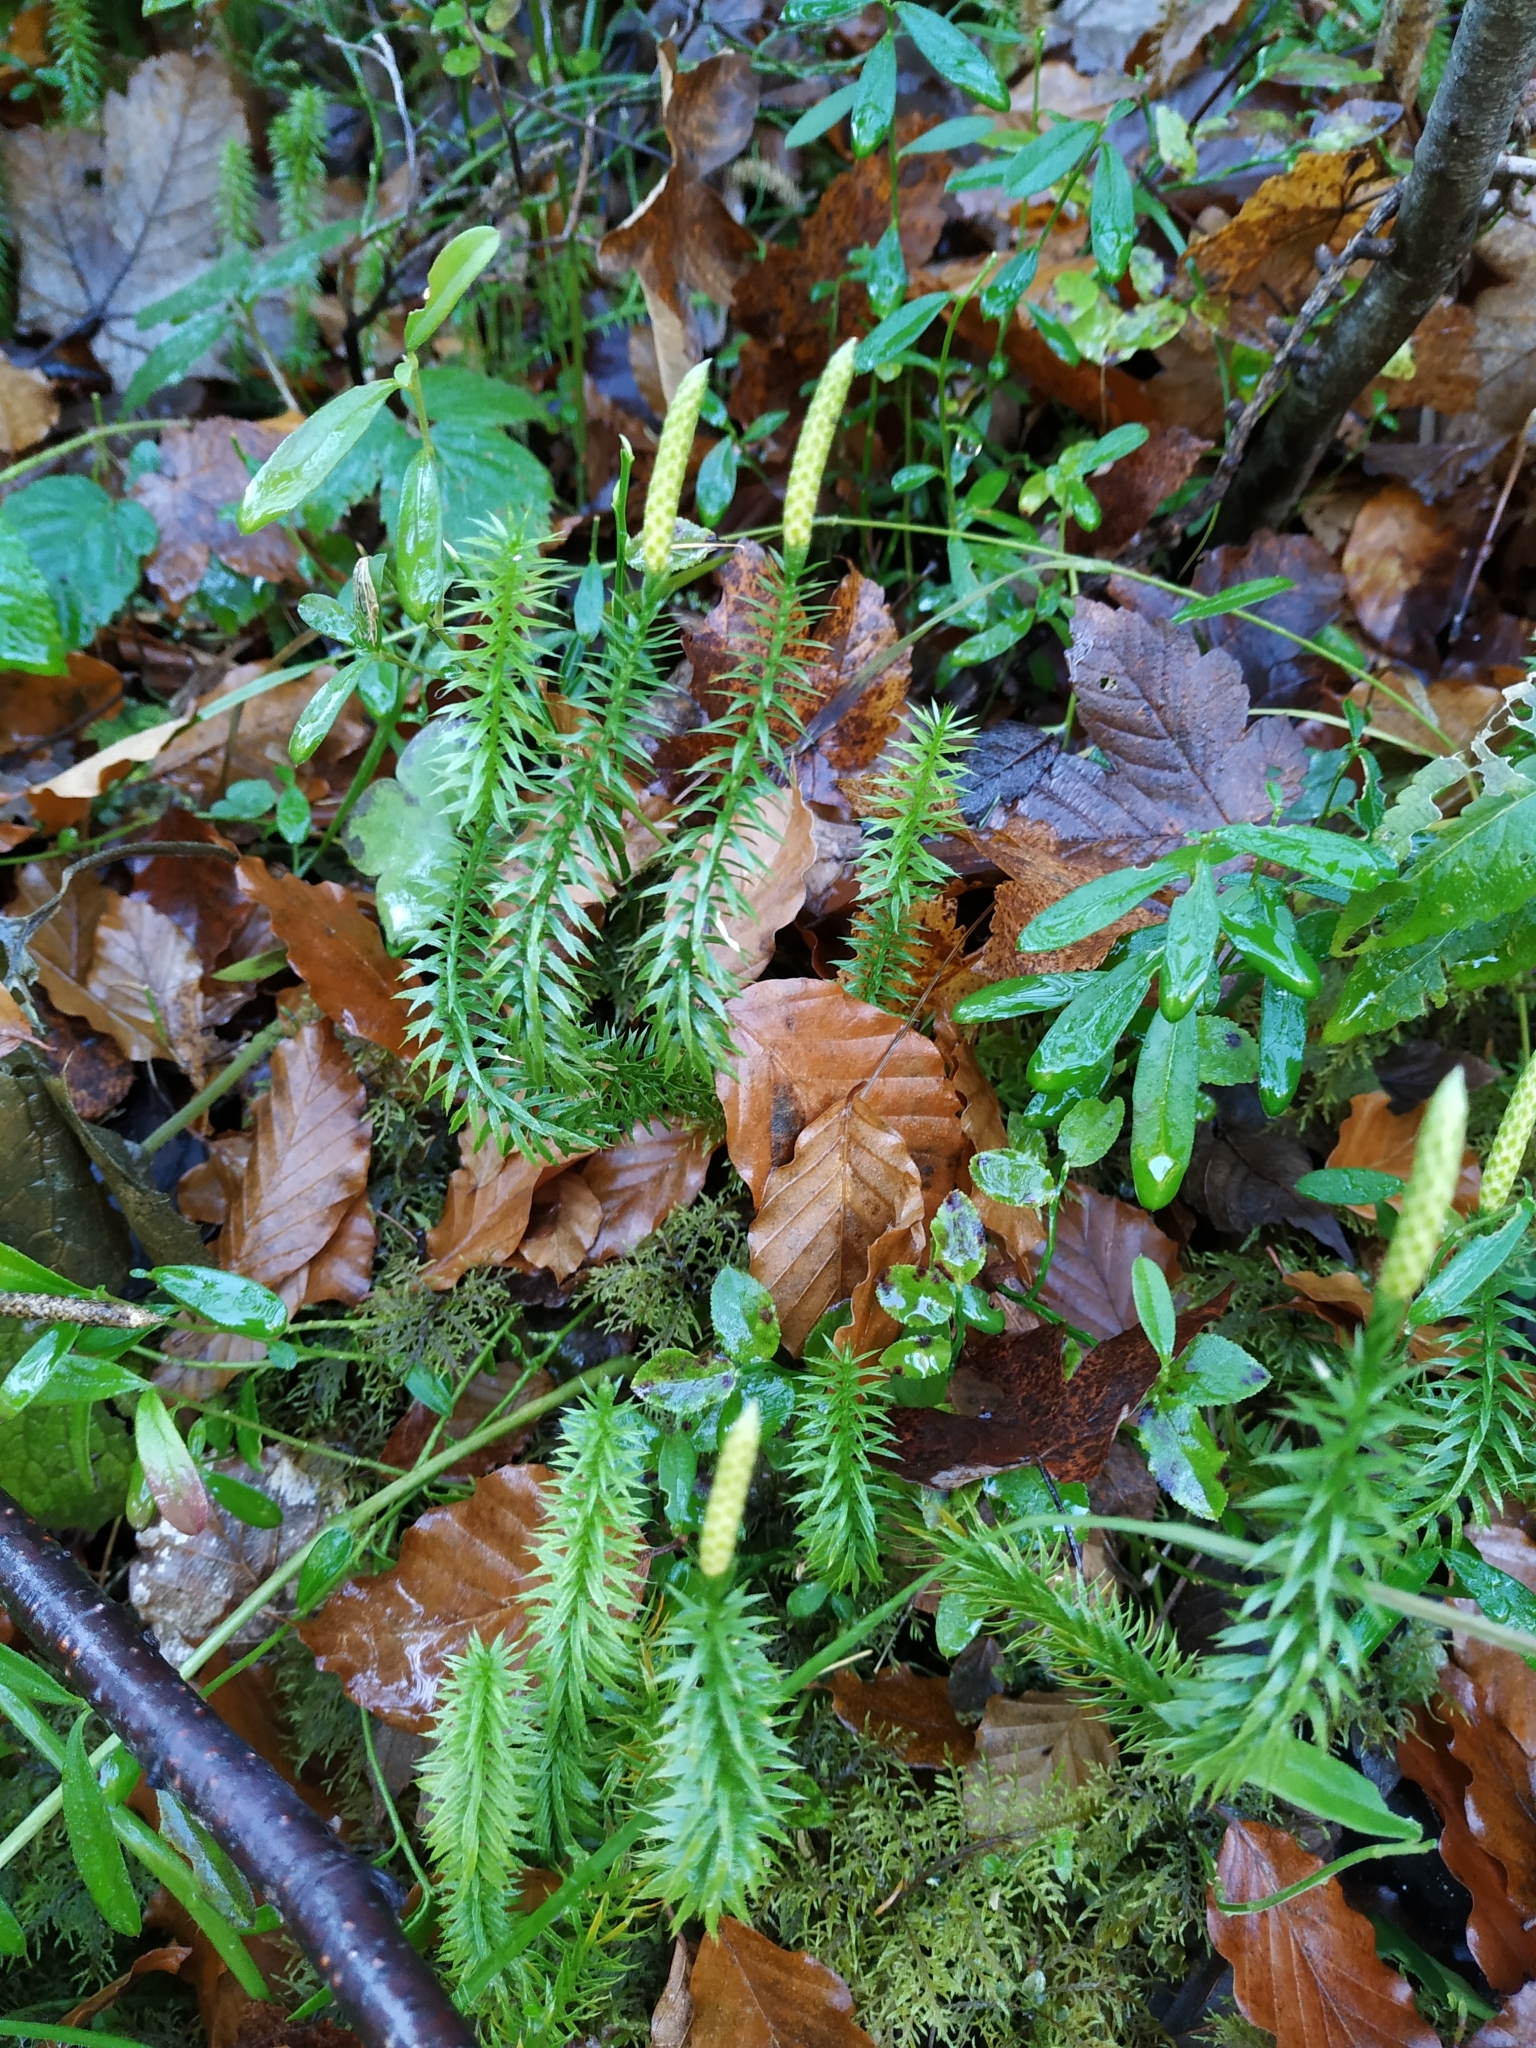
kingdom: Plantae
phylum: Tracheophyta
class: Lycopodiopsida
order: Lycopodiales
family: Lycopodiaceae
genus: Spinulum
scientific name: Spinulum annotinum
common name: Interrupted club-moss
